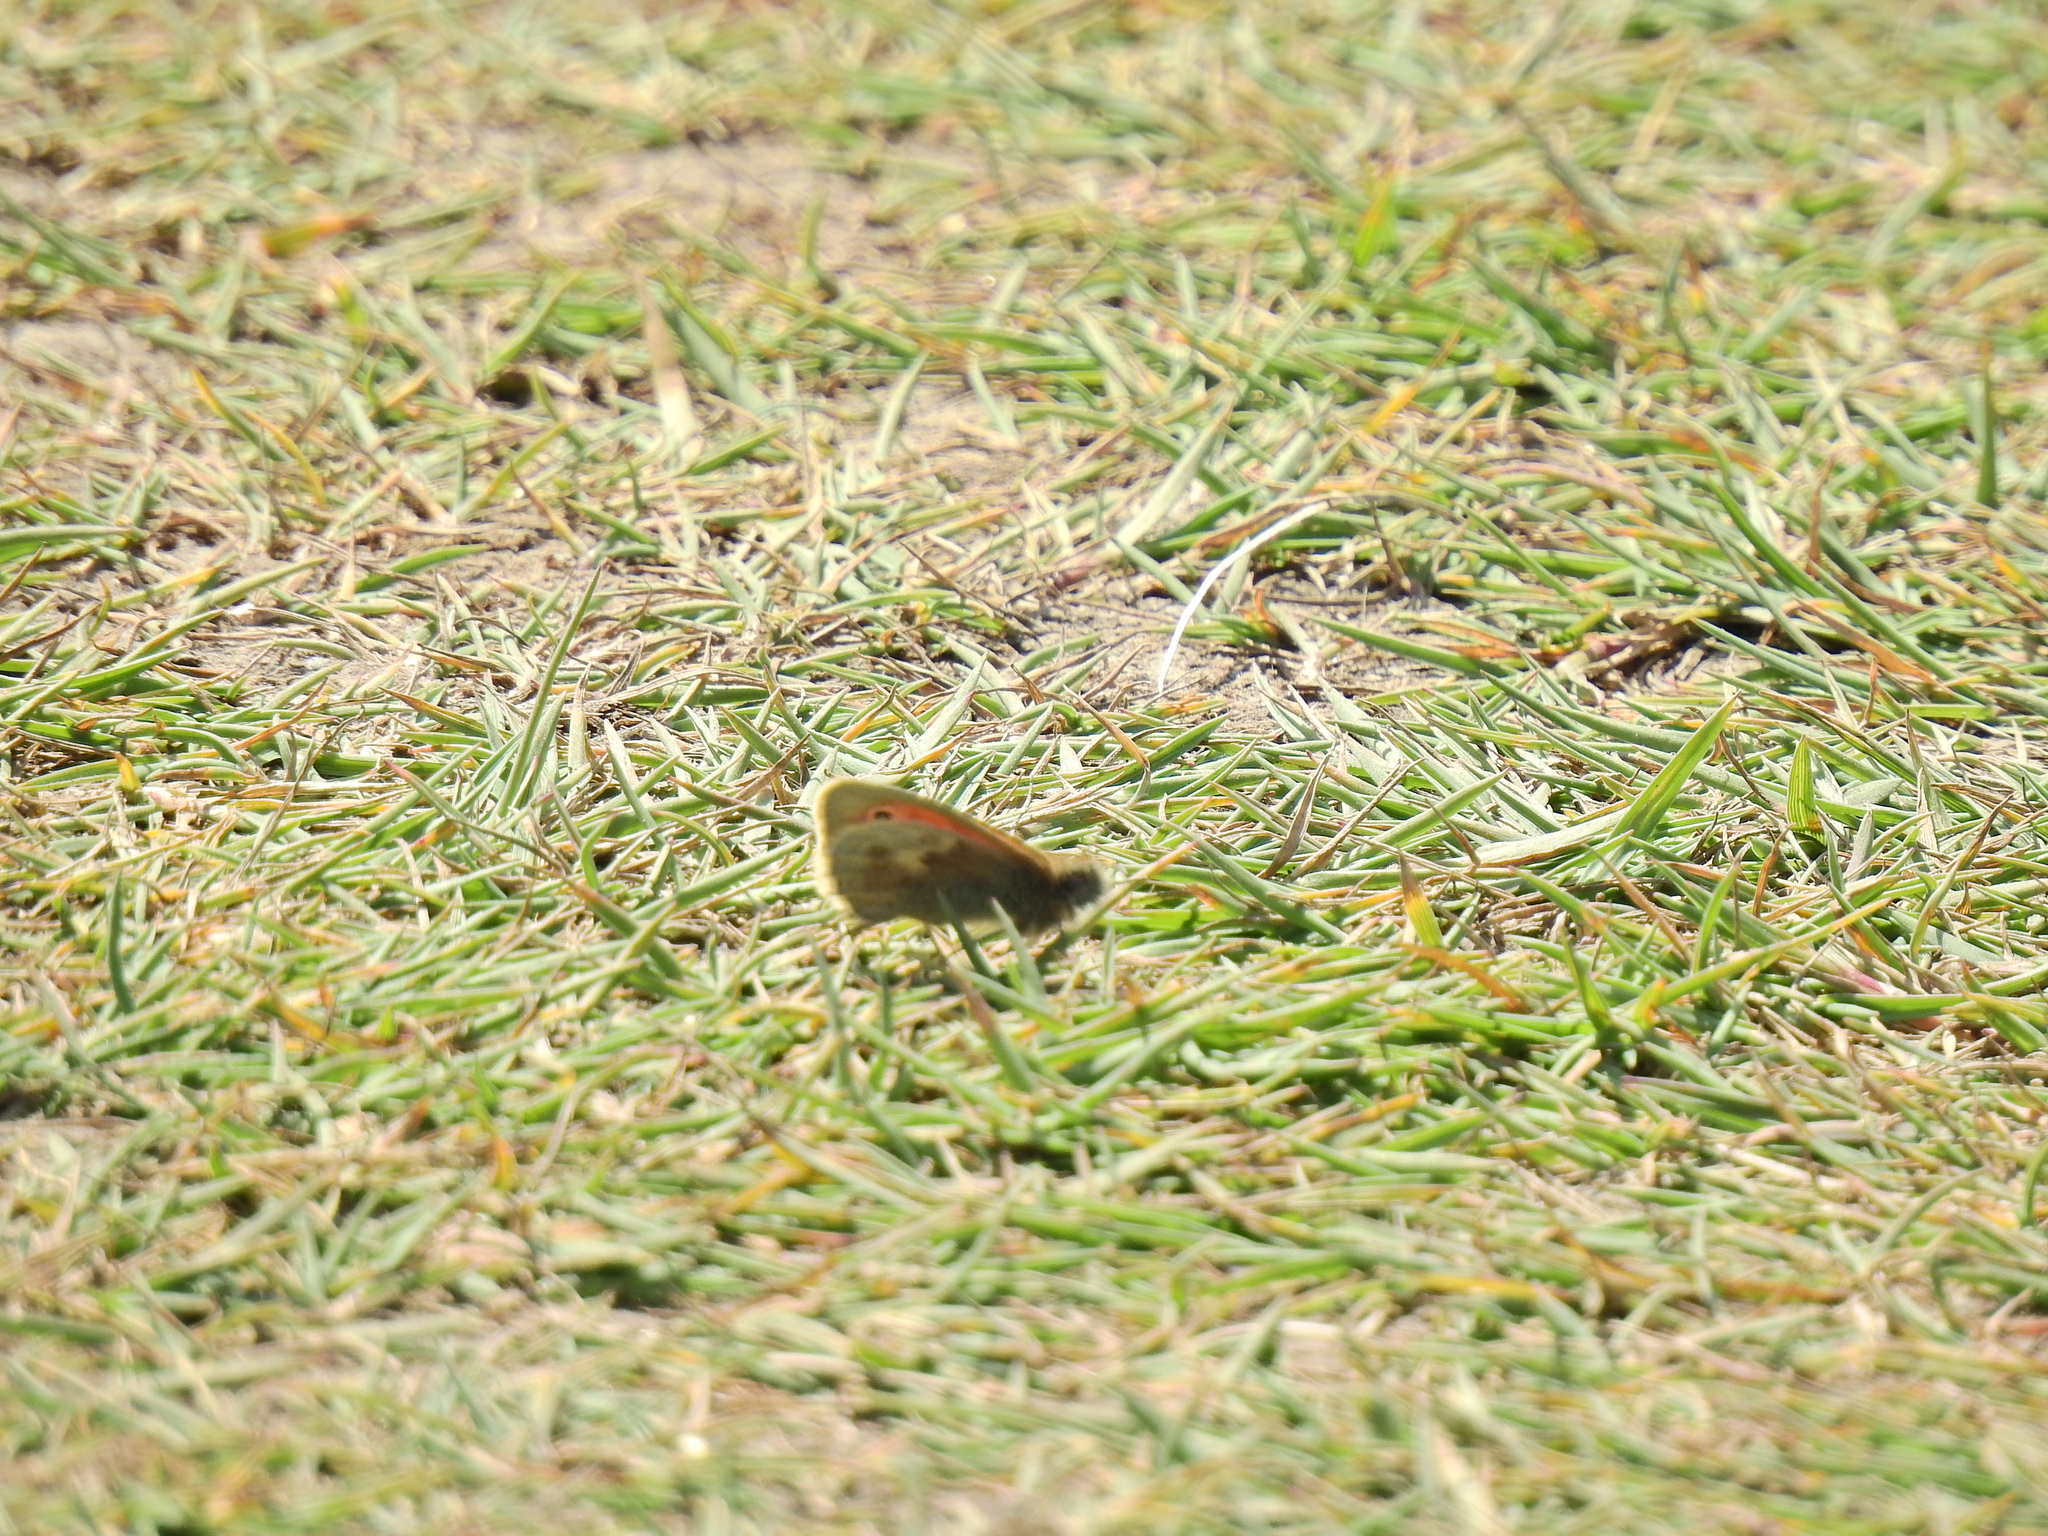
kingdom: Animalia
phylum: Arthropoda
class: Insecta
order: Lepidoptera
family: Nymphalidae
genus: Coenonympha
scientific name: Coenonympha pamphilus
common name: Small heath
